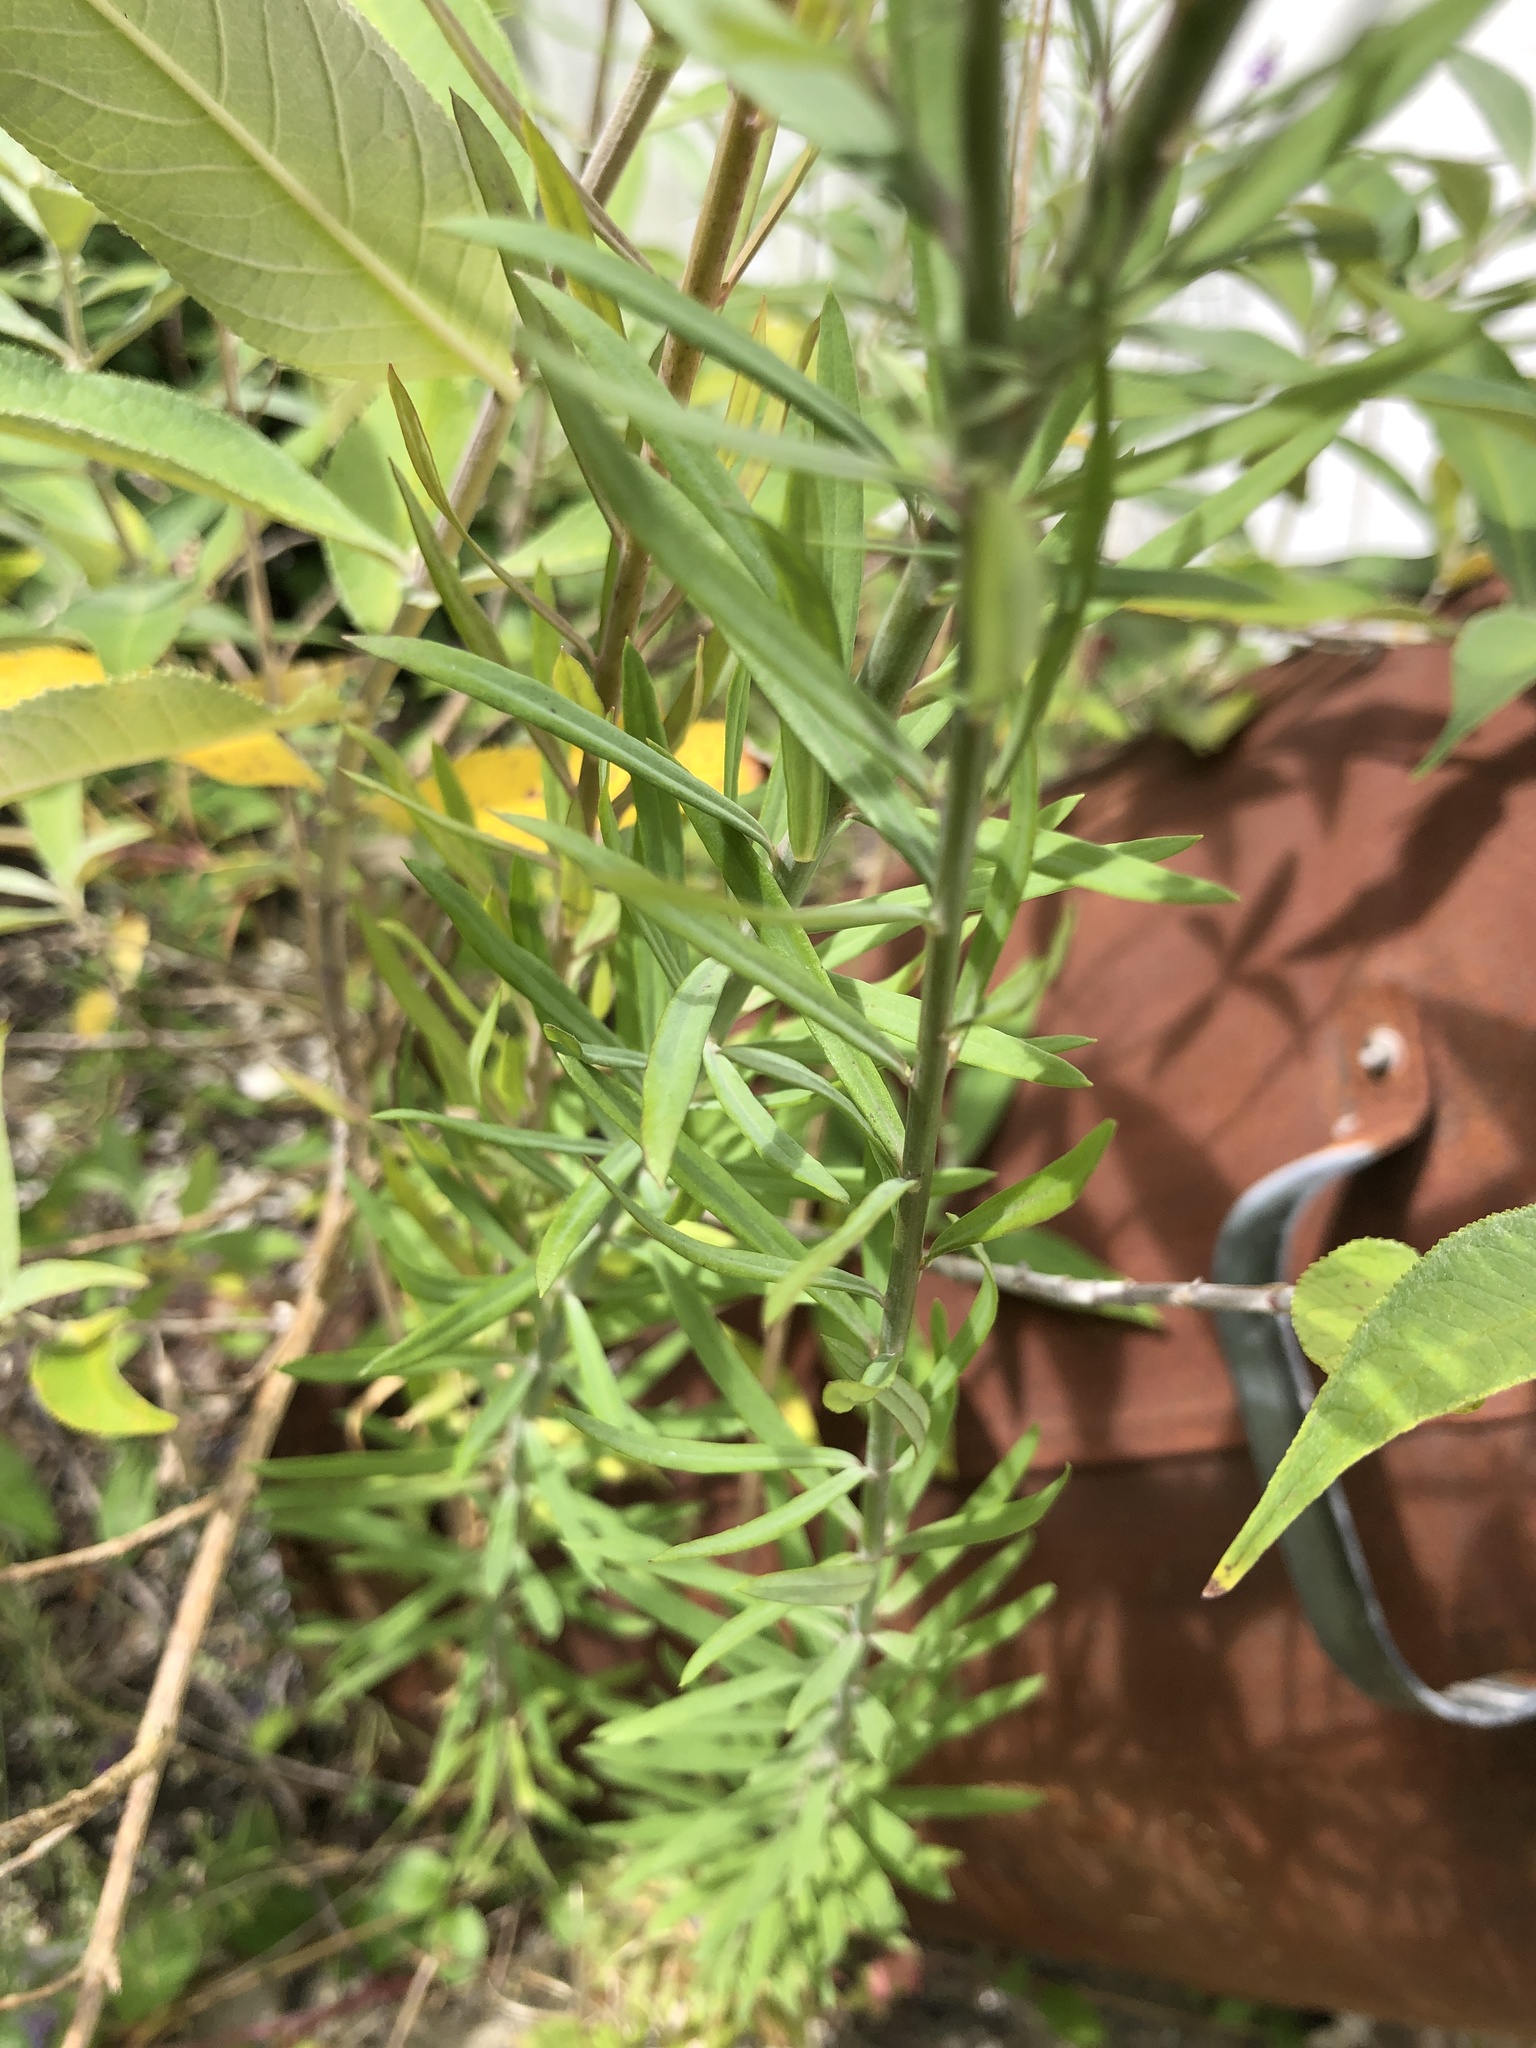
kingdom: Plantae
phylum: Tracheophyta
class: Magnoliopsida
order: Lamiales
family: Plantaginaceae
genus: Linaria
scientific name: Linaria purpurea
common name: Purple toadflax
